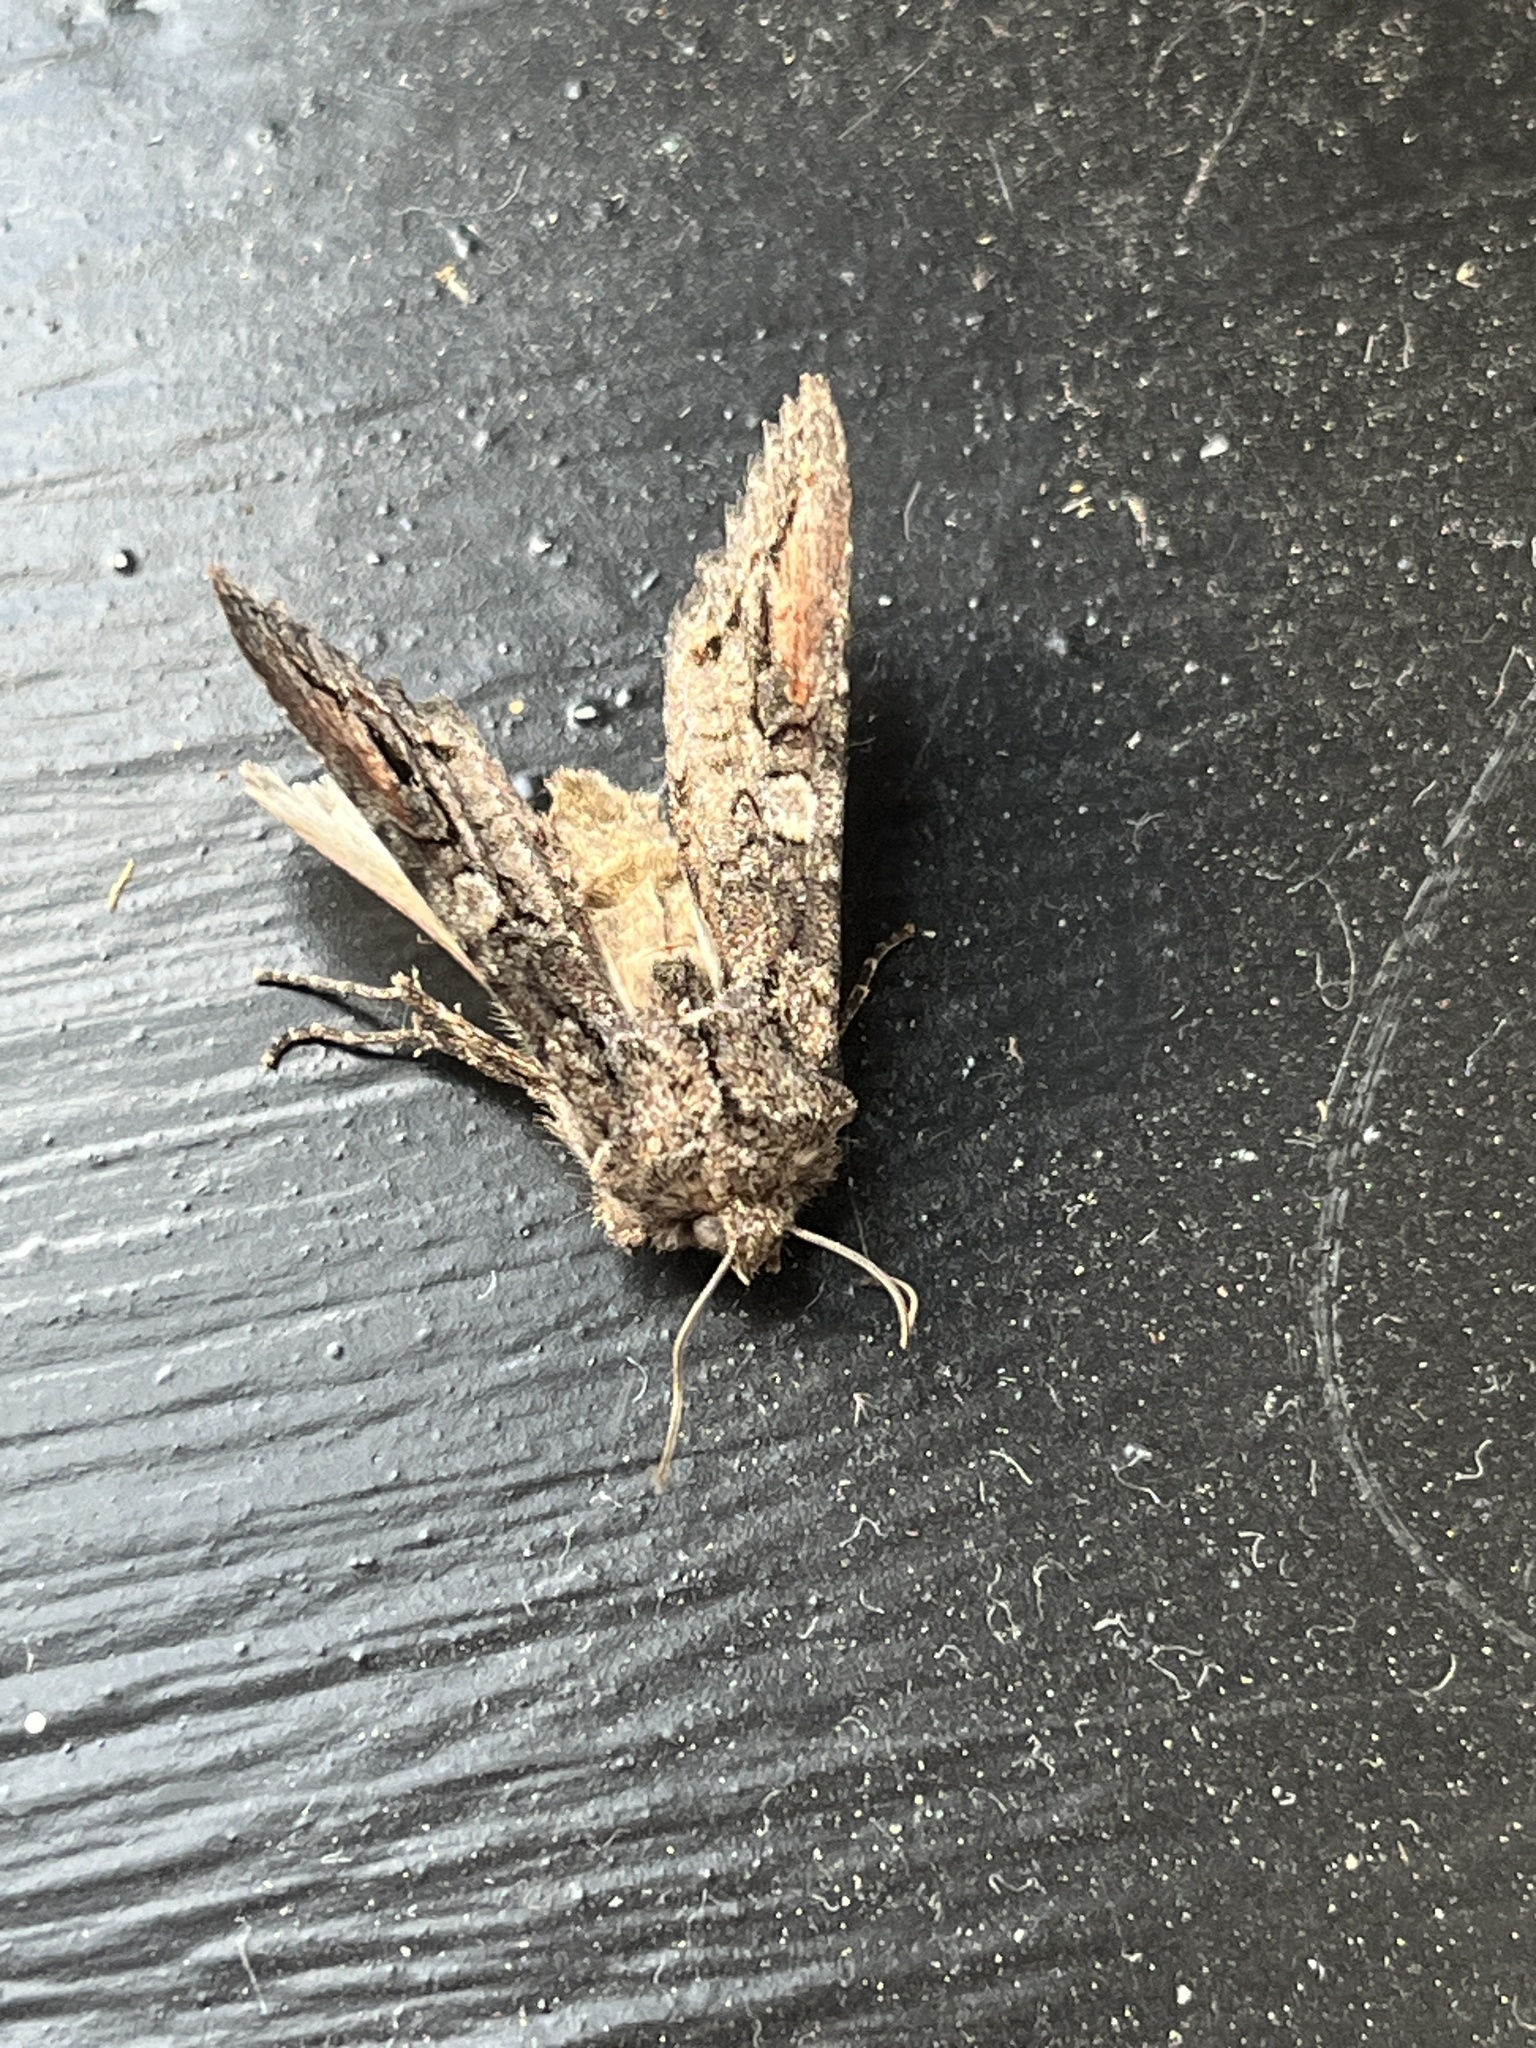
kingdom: Animalia
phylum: Arthropoda
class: Insecta
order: Lepidoptera
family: Noctuidae
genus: Egira
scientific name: Egira perlubens
